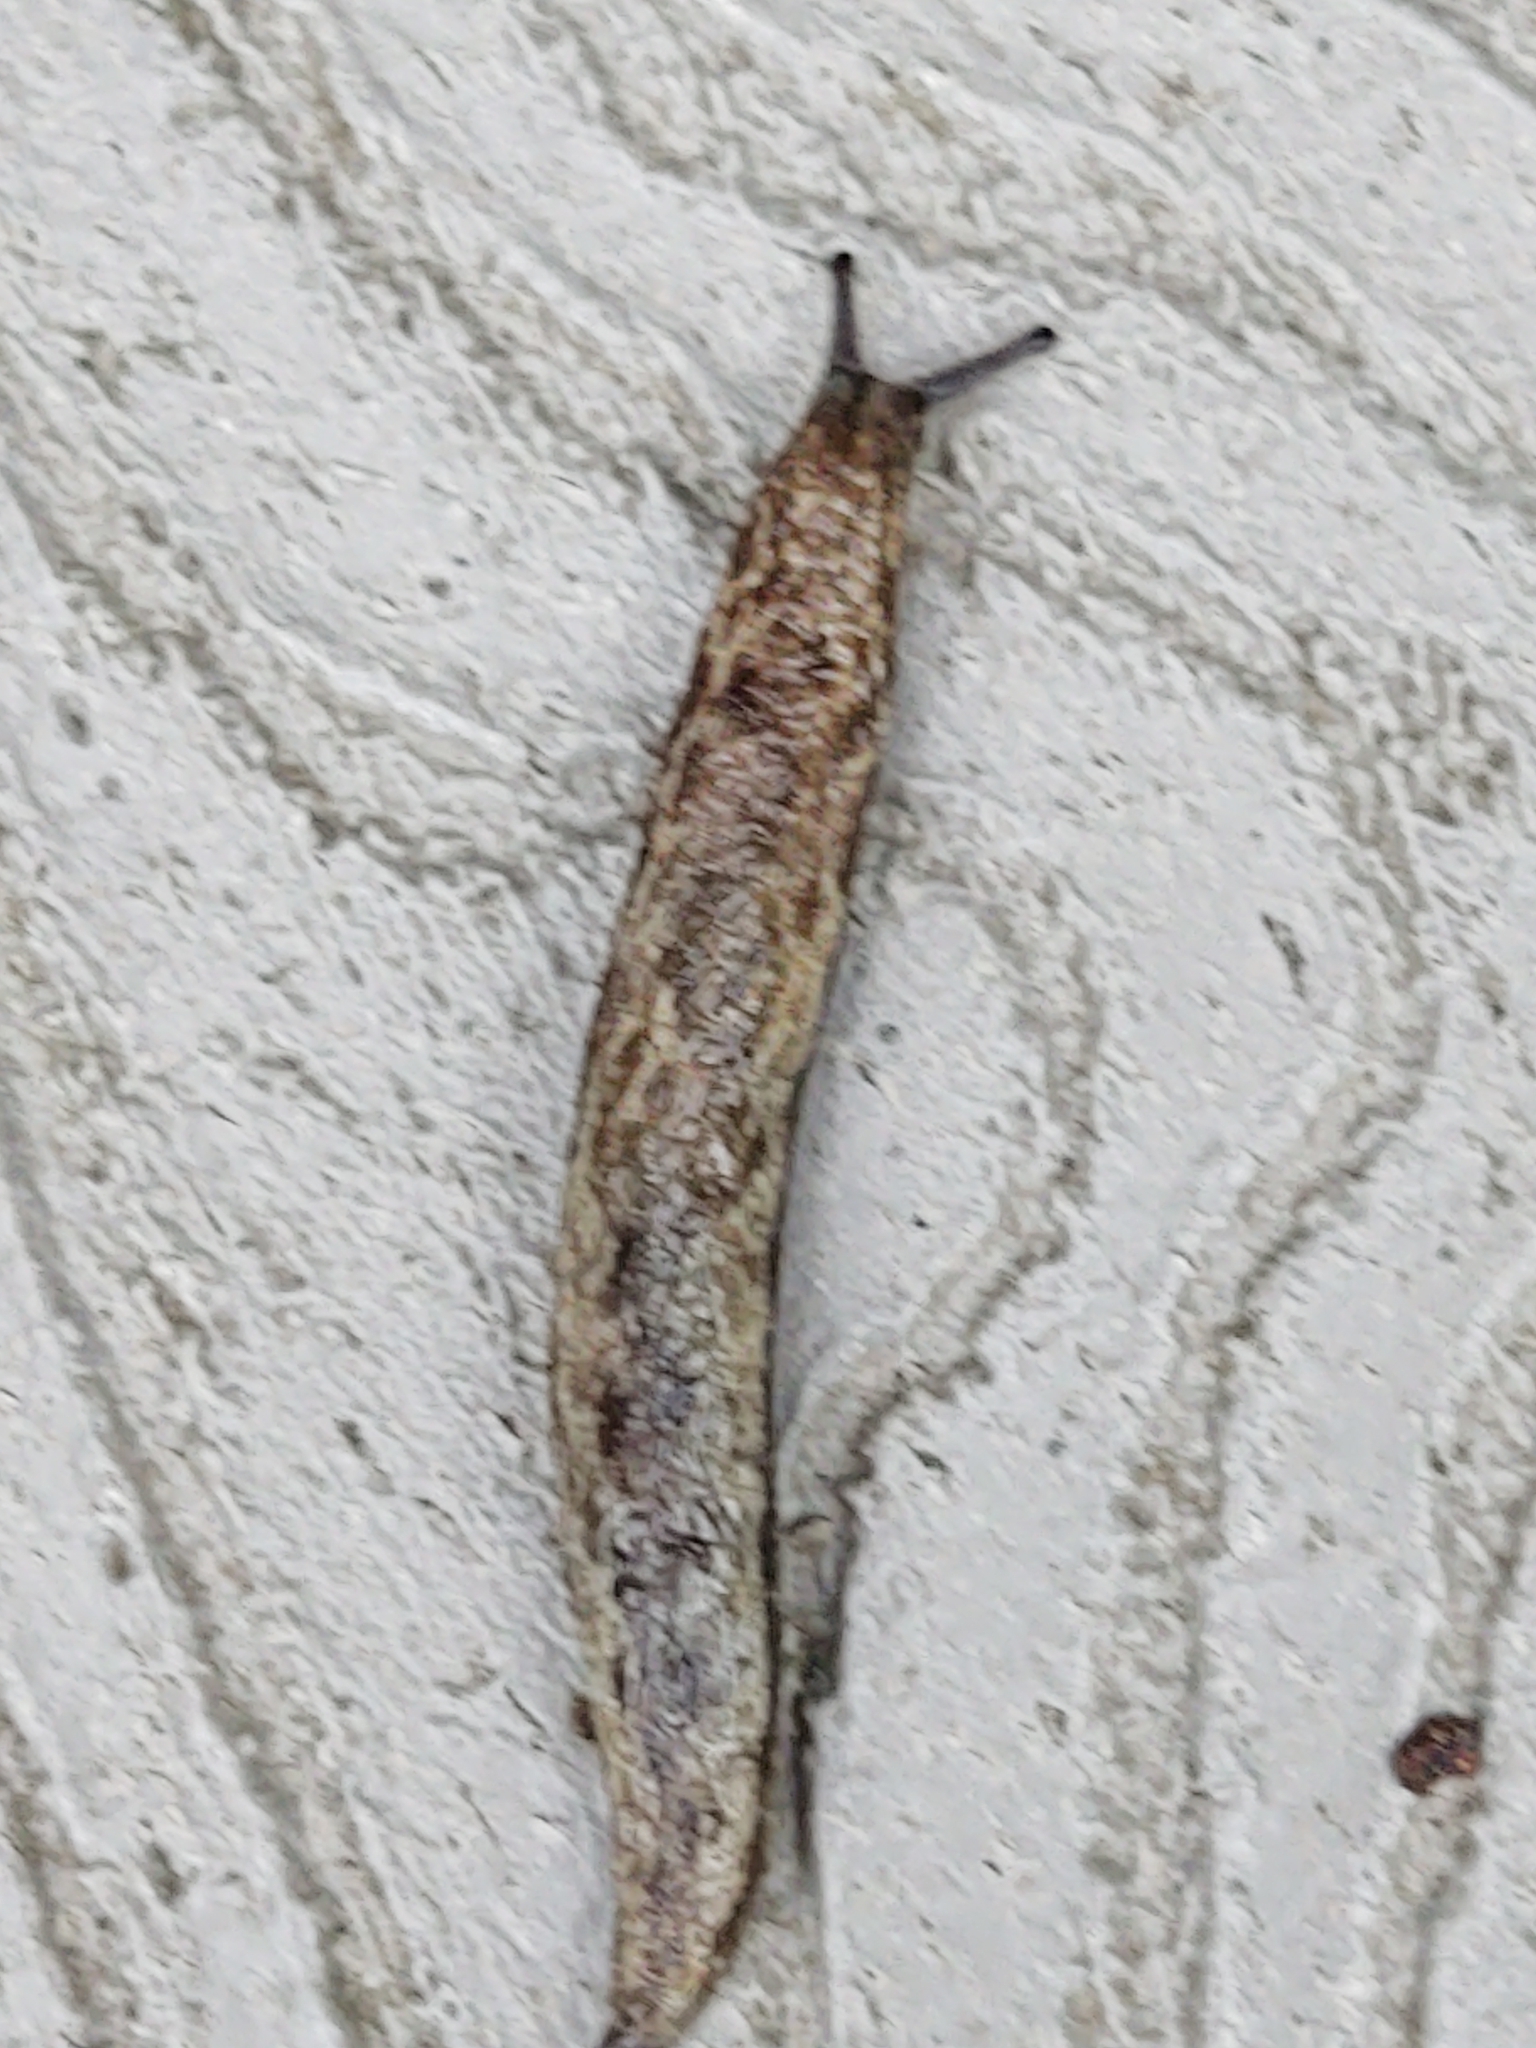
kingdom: Animalia
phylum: Mollusca
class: Gastropoda
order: Stylommatophora
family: Philomycidae
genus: Megapallifera
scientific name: Megapallifera mutabilis
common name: Changeable mantleslug
